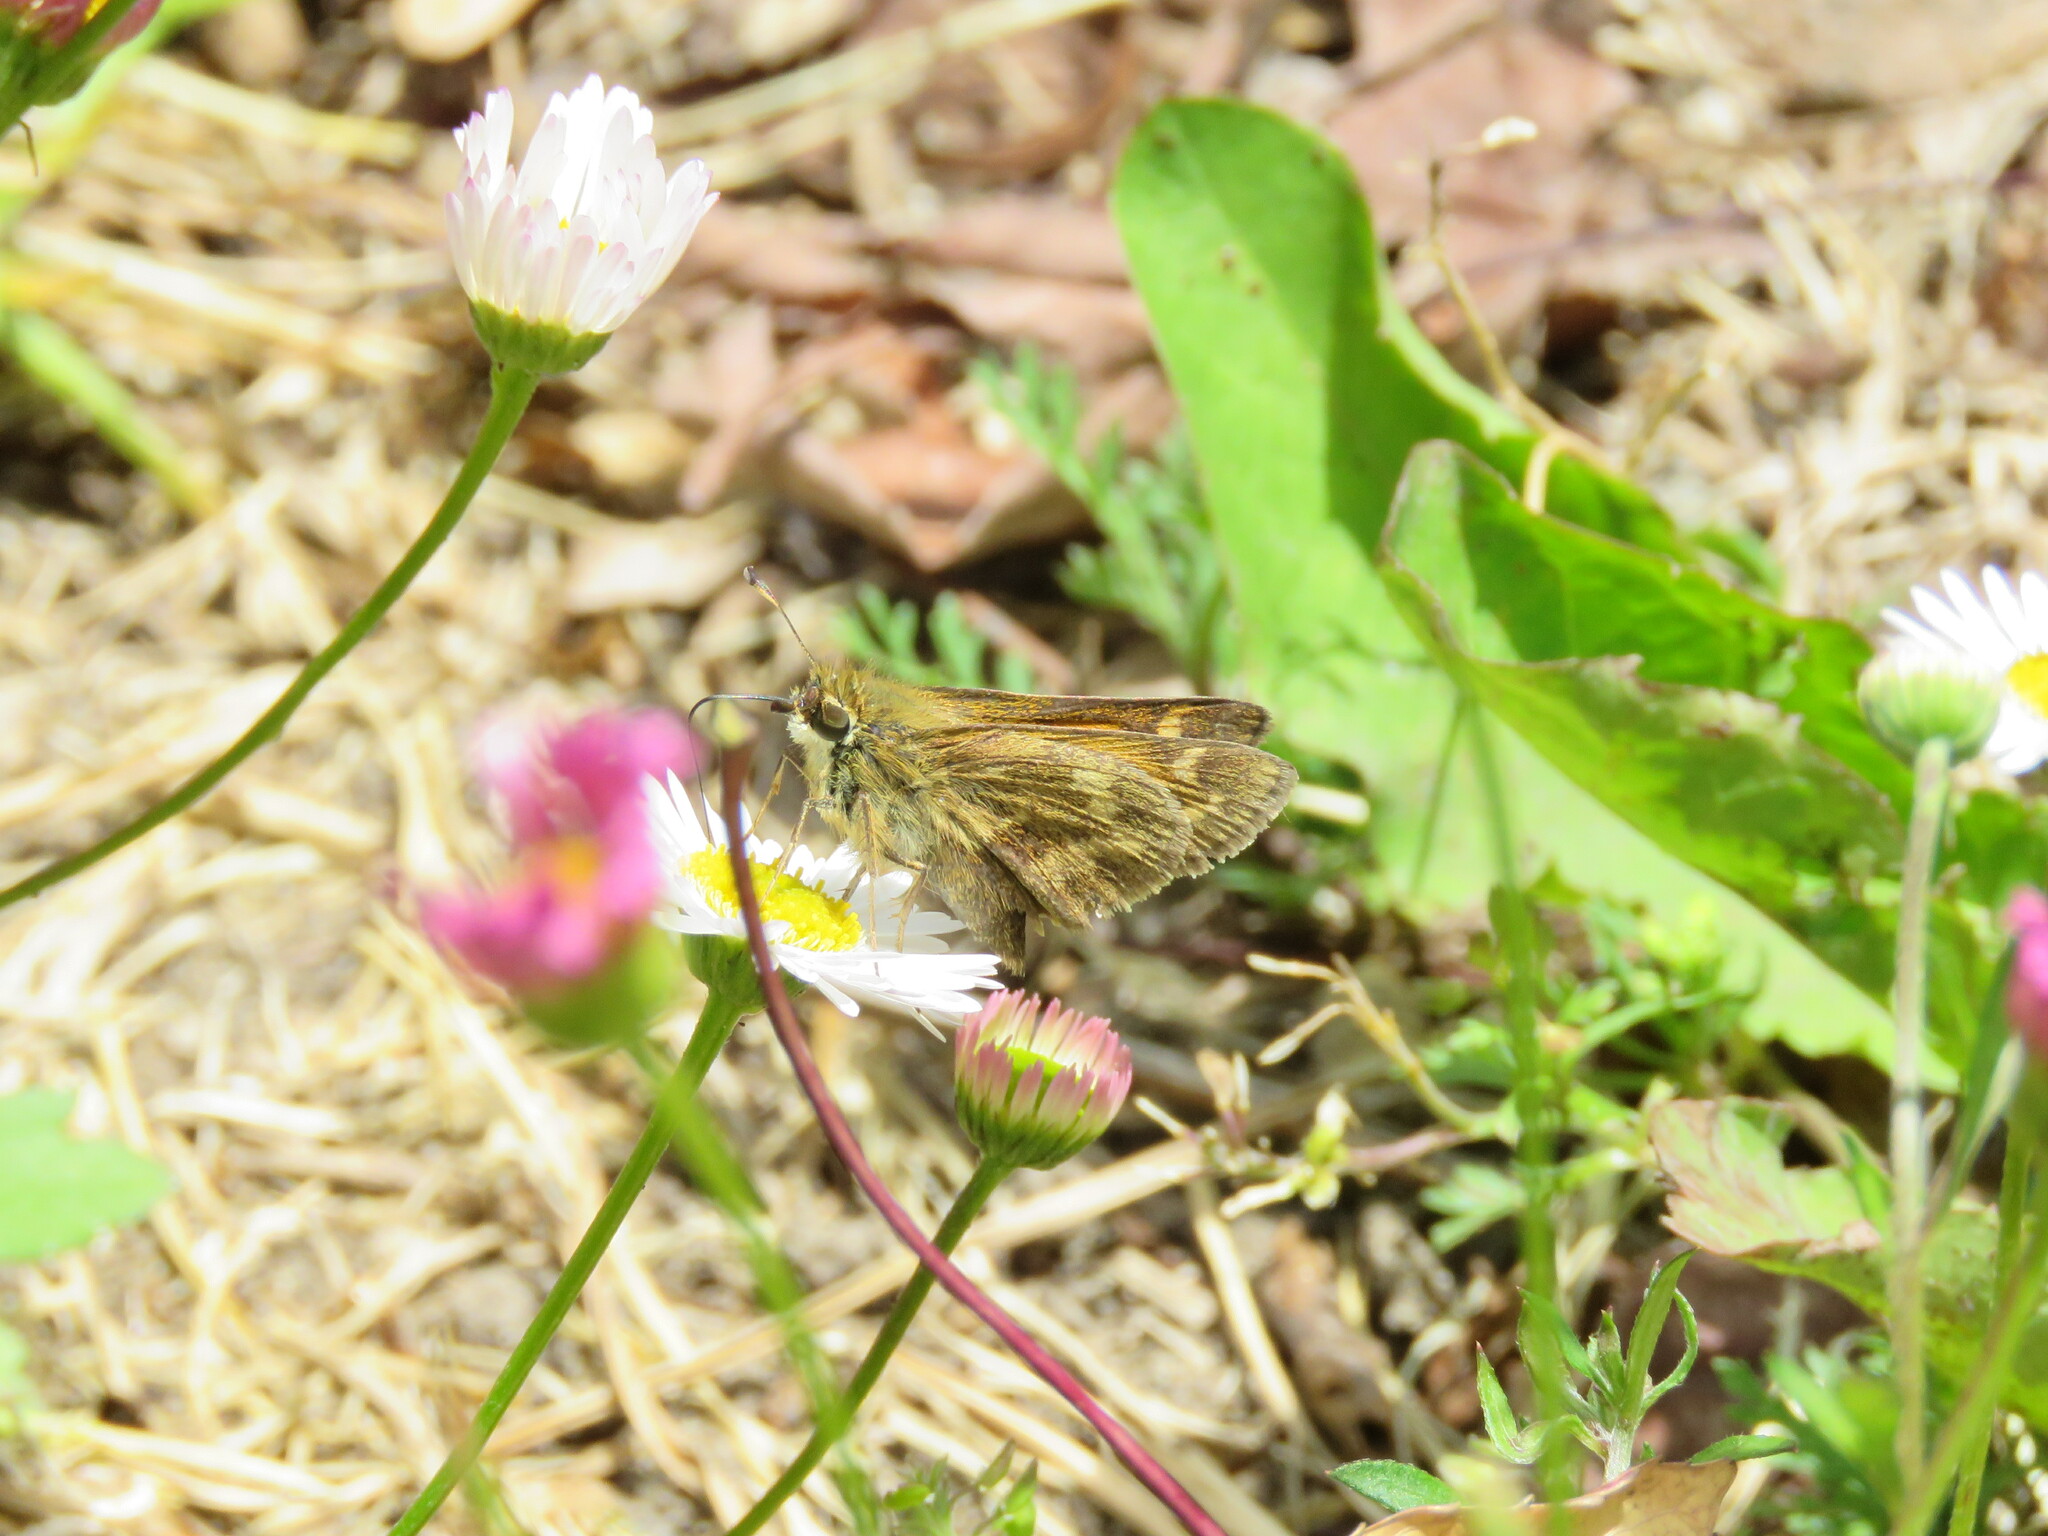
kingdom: Animalia
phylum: Arthropoda
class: Insecta
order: Lepidoptera
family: Hesperiidae
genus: Atalopedes
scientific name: Atalopedes
